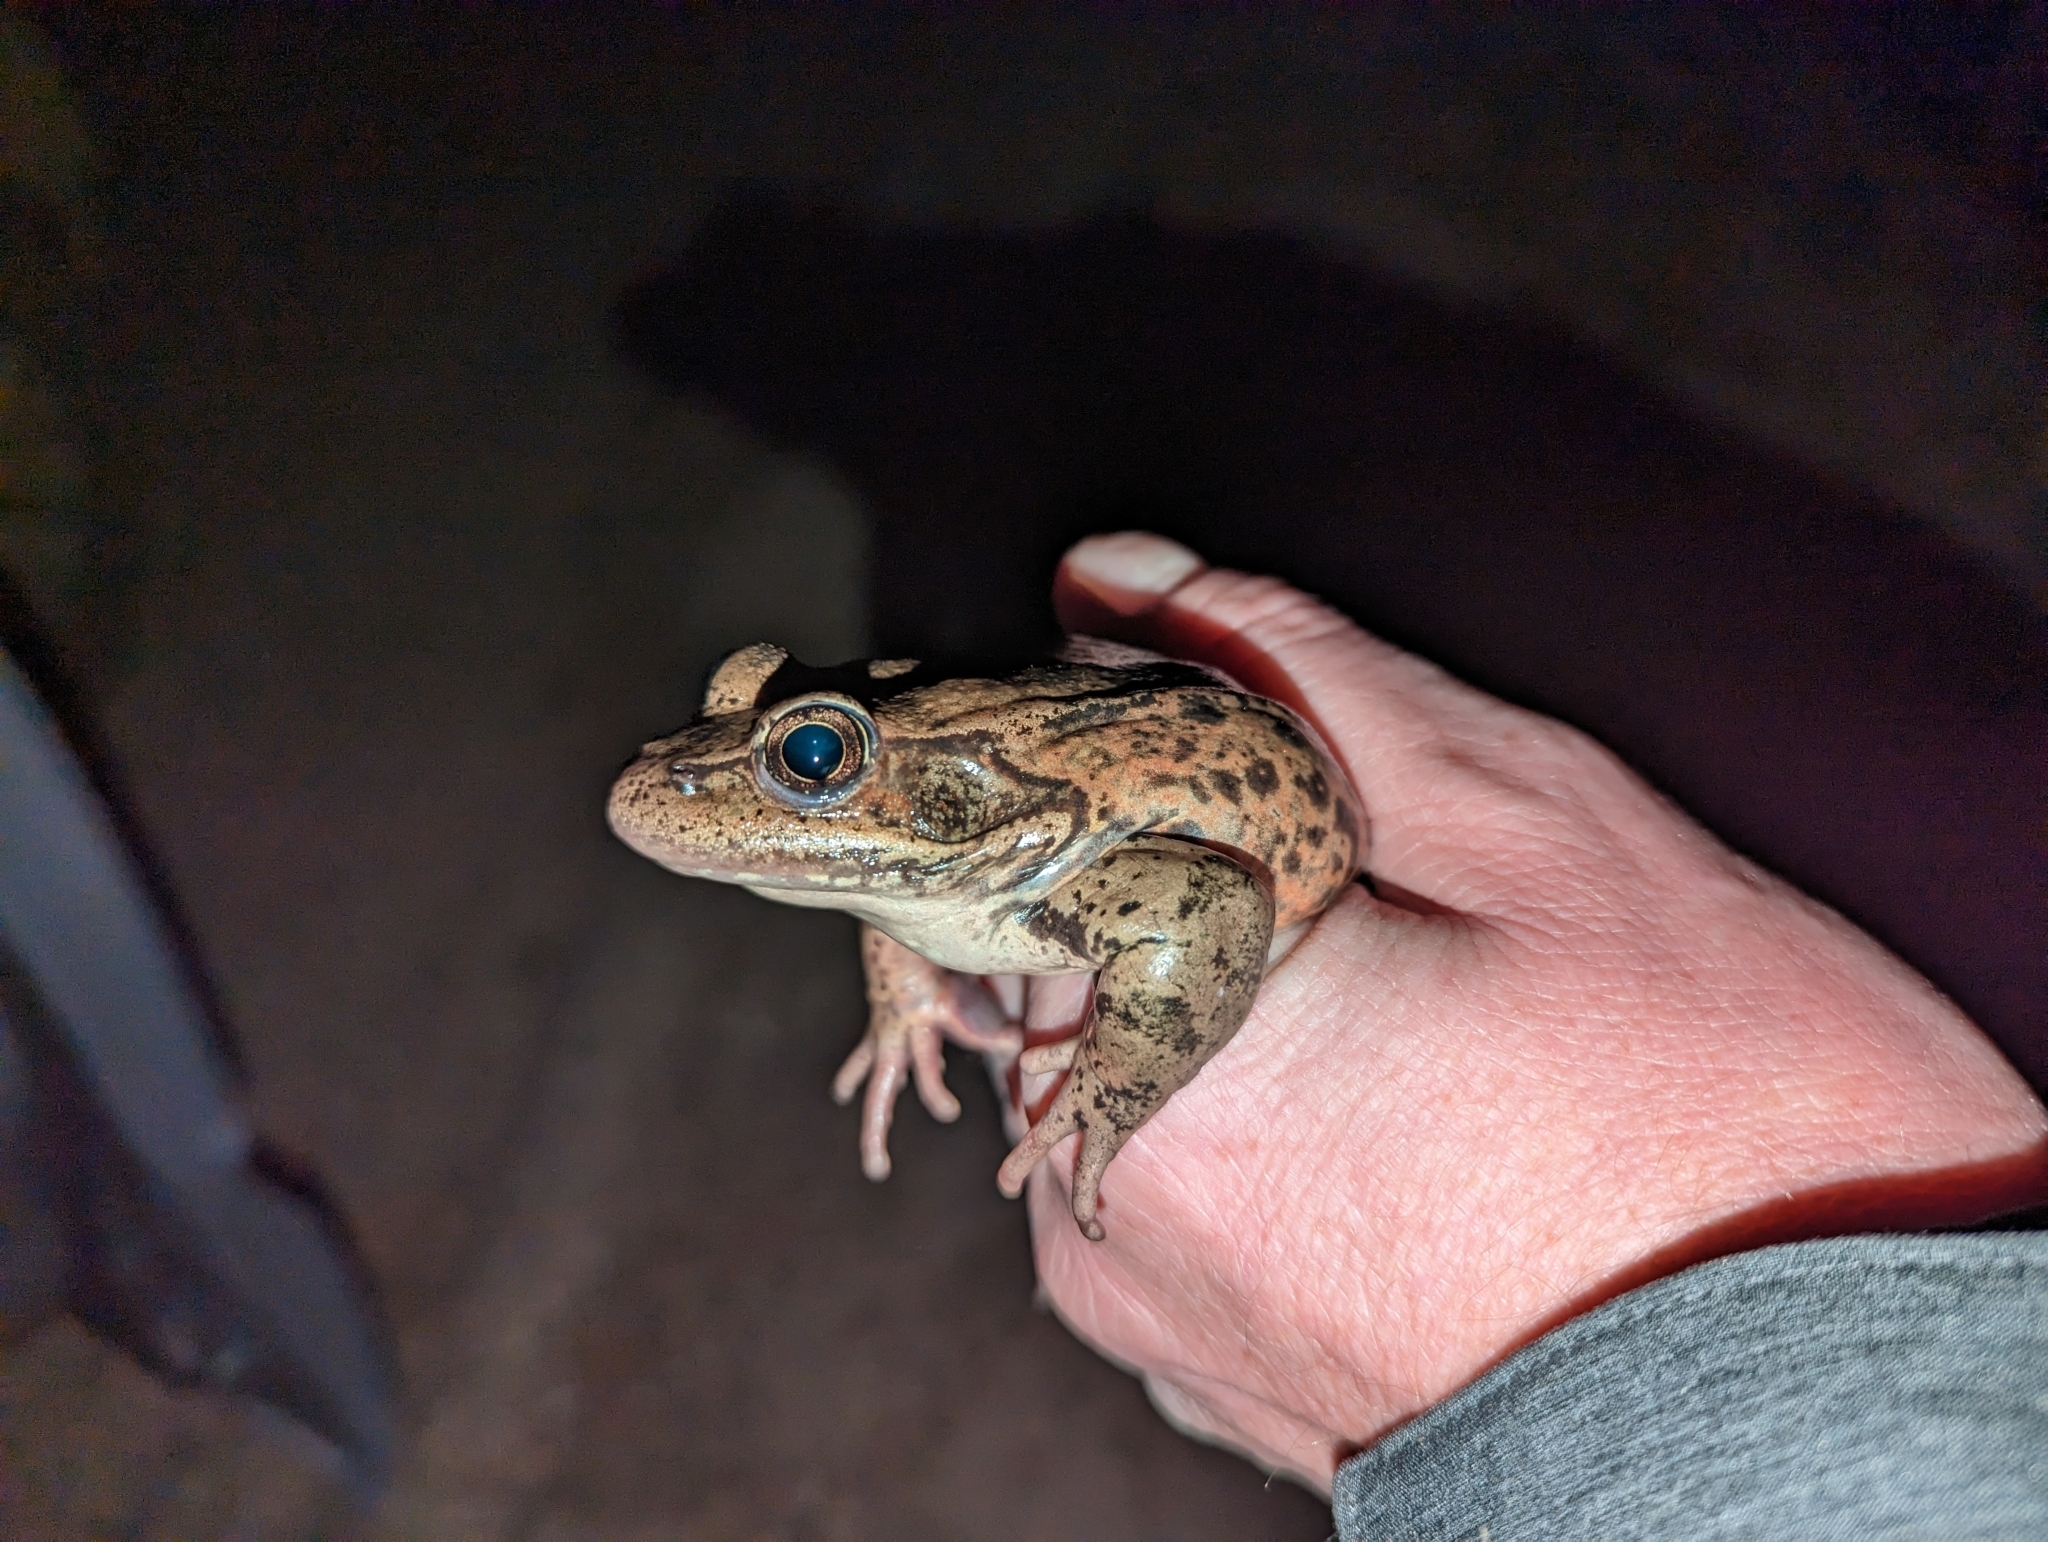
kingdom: Animalia
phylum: Chordata
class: Amphibia
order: Anura
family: Ranidae
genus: Rana
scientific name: Rana draytonii
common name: California red-legged frog
